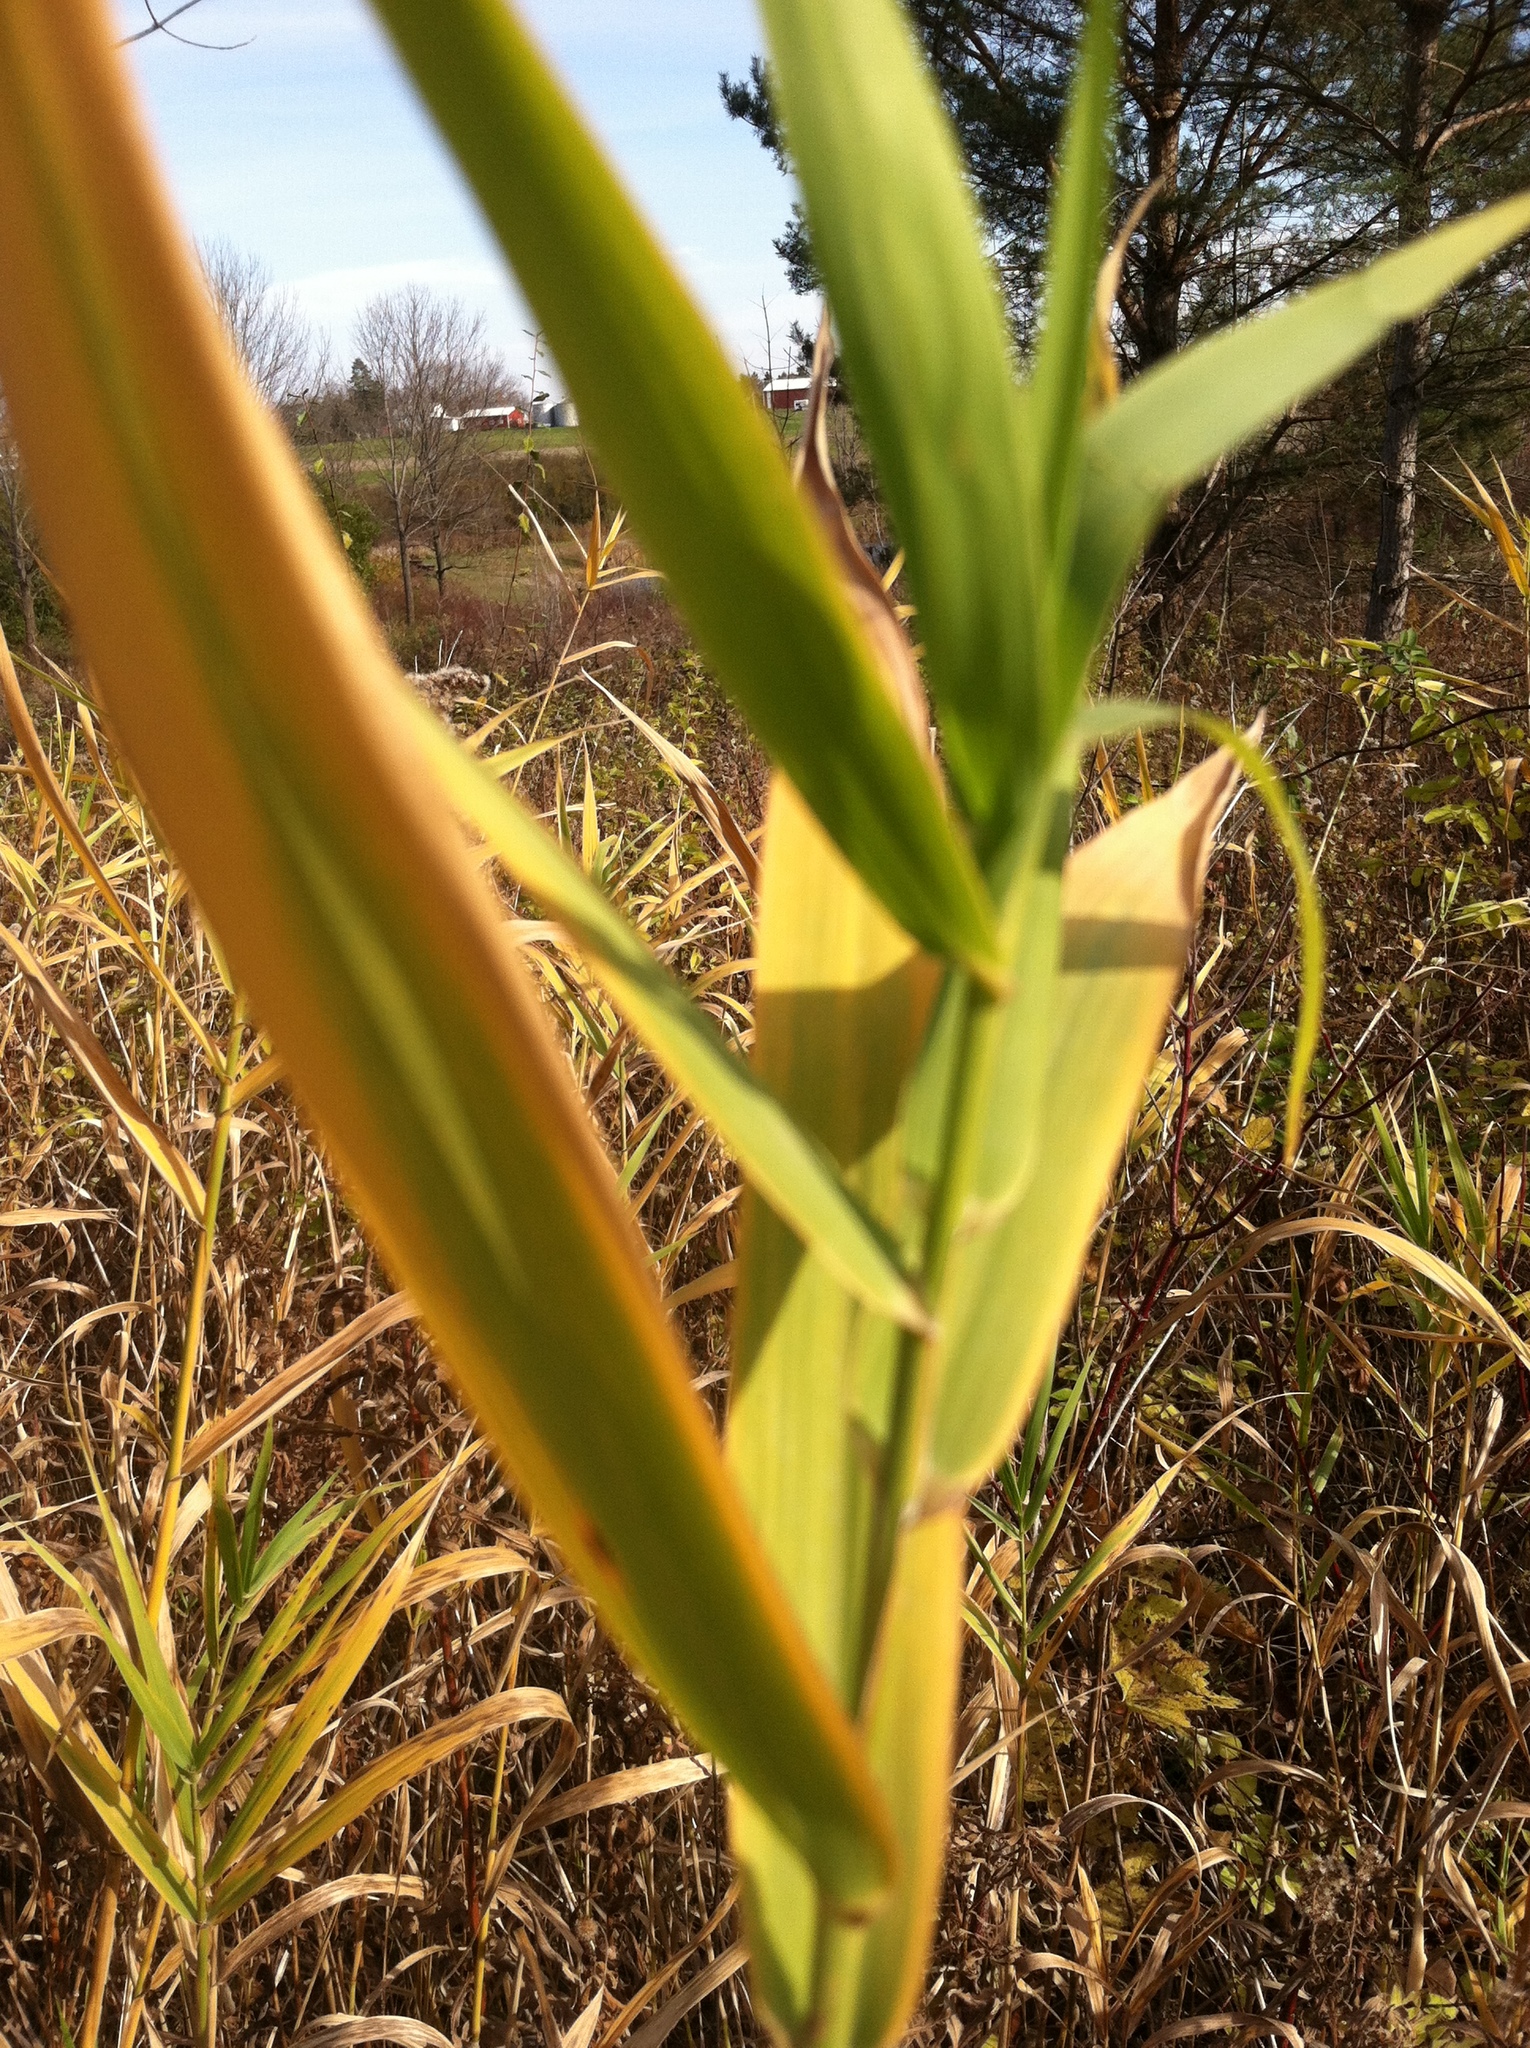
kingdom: Plantae
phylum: Tracheophyta
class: Liliopsida
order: Poales
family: Poaceae
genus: Phalaris
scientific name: Phalaris arundinacea
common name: Reed canary-grass
